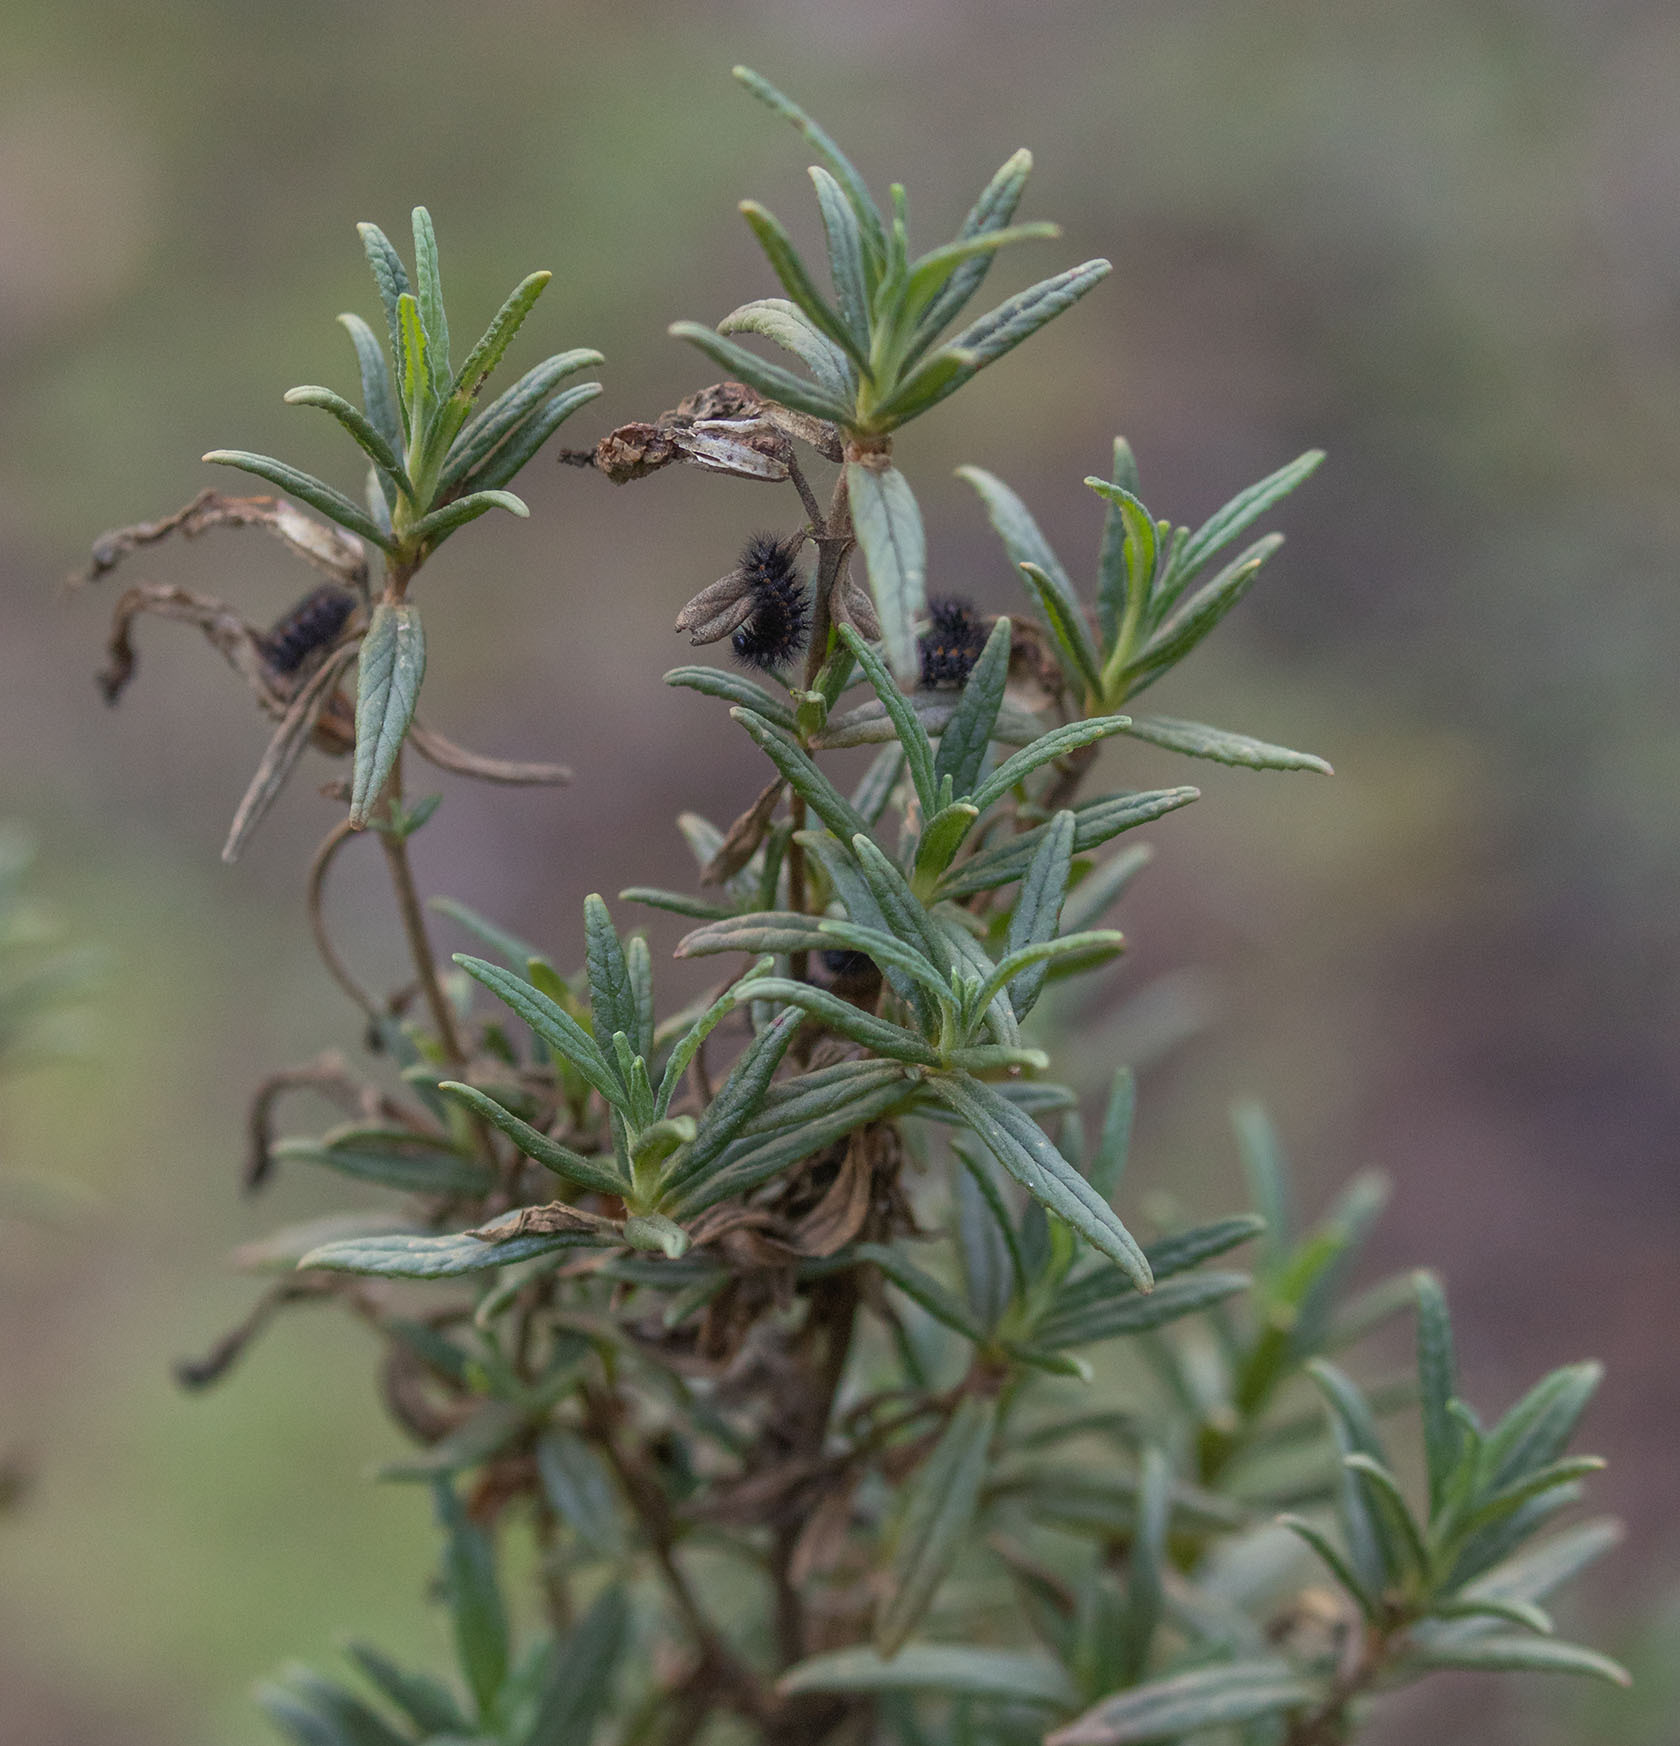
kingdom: Animalia
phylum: Arthropoda
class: Insecta
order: Lepidoptera
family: Nymphalidae
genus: Occidryas
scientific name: Occidryas chalcedona
